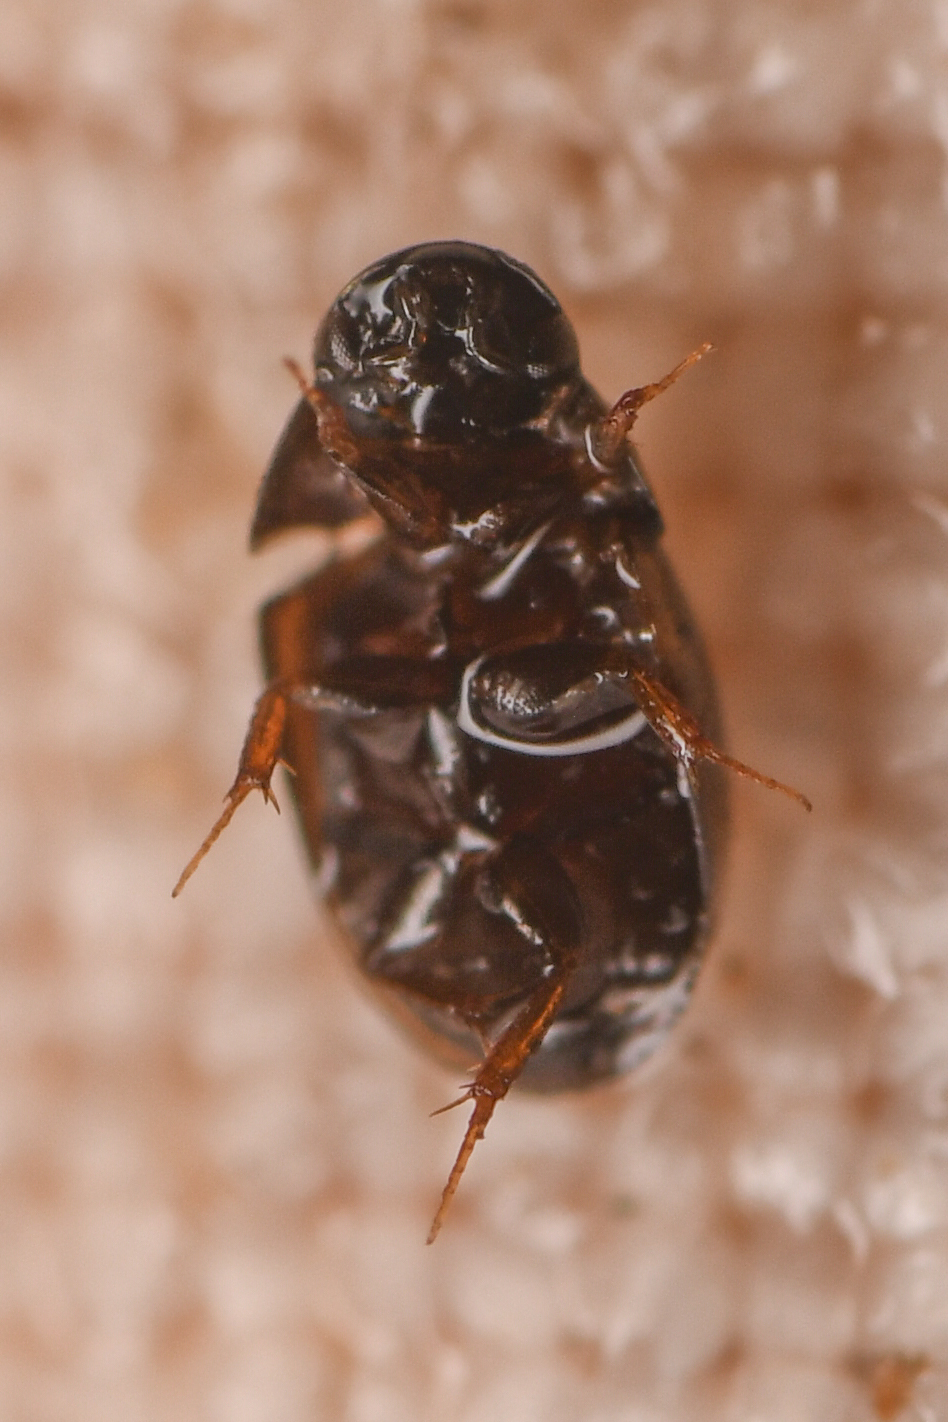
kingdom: Animalia
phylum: Arthropoda
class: Insecta
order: Coleoptera
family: Hydrophilidae
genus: Paracymus
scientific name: Paracymus
